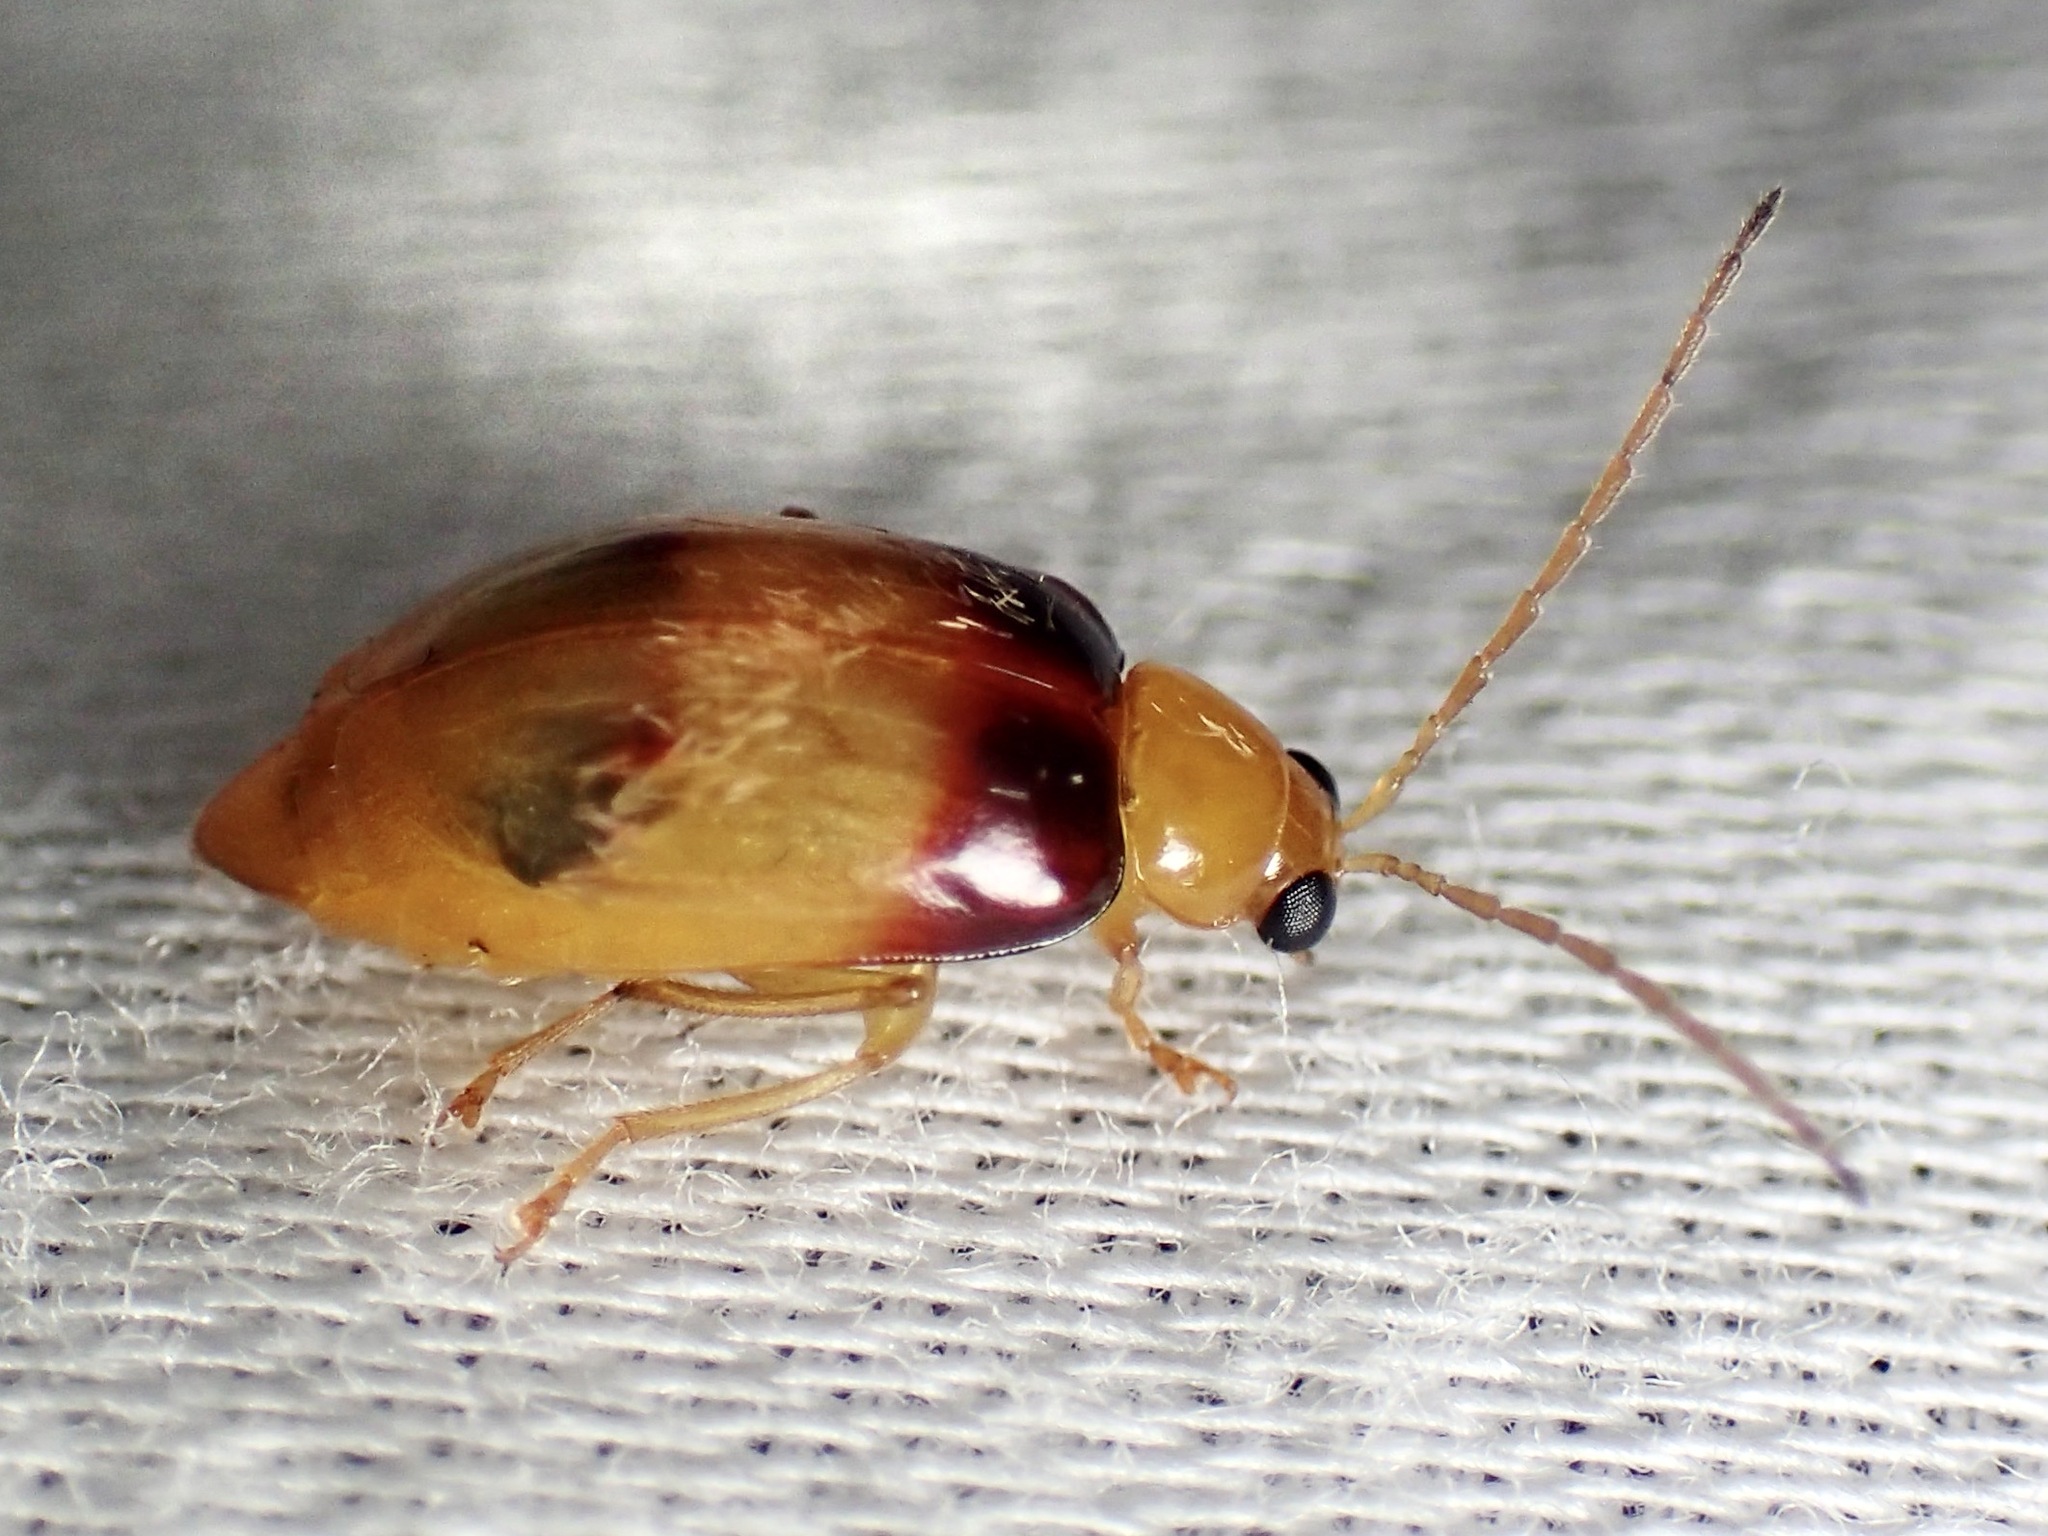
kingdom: Animalia
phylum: Arthropoda
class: Insecta
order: Coleoptera
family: Chrysomelidae
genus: Monolepta
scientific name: Monolepta
